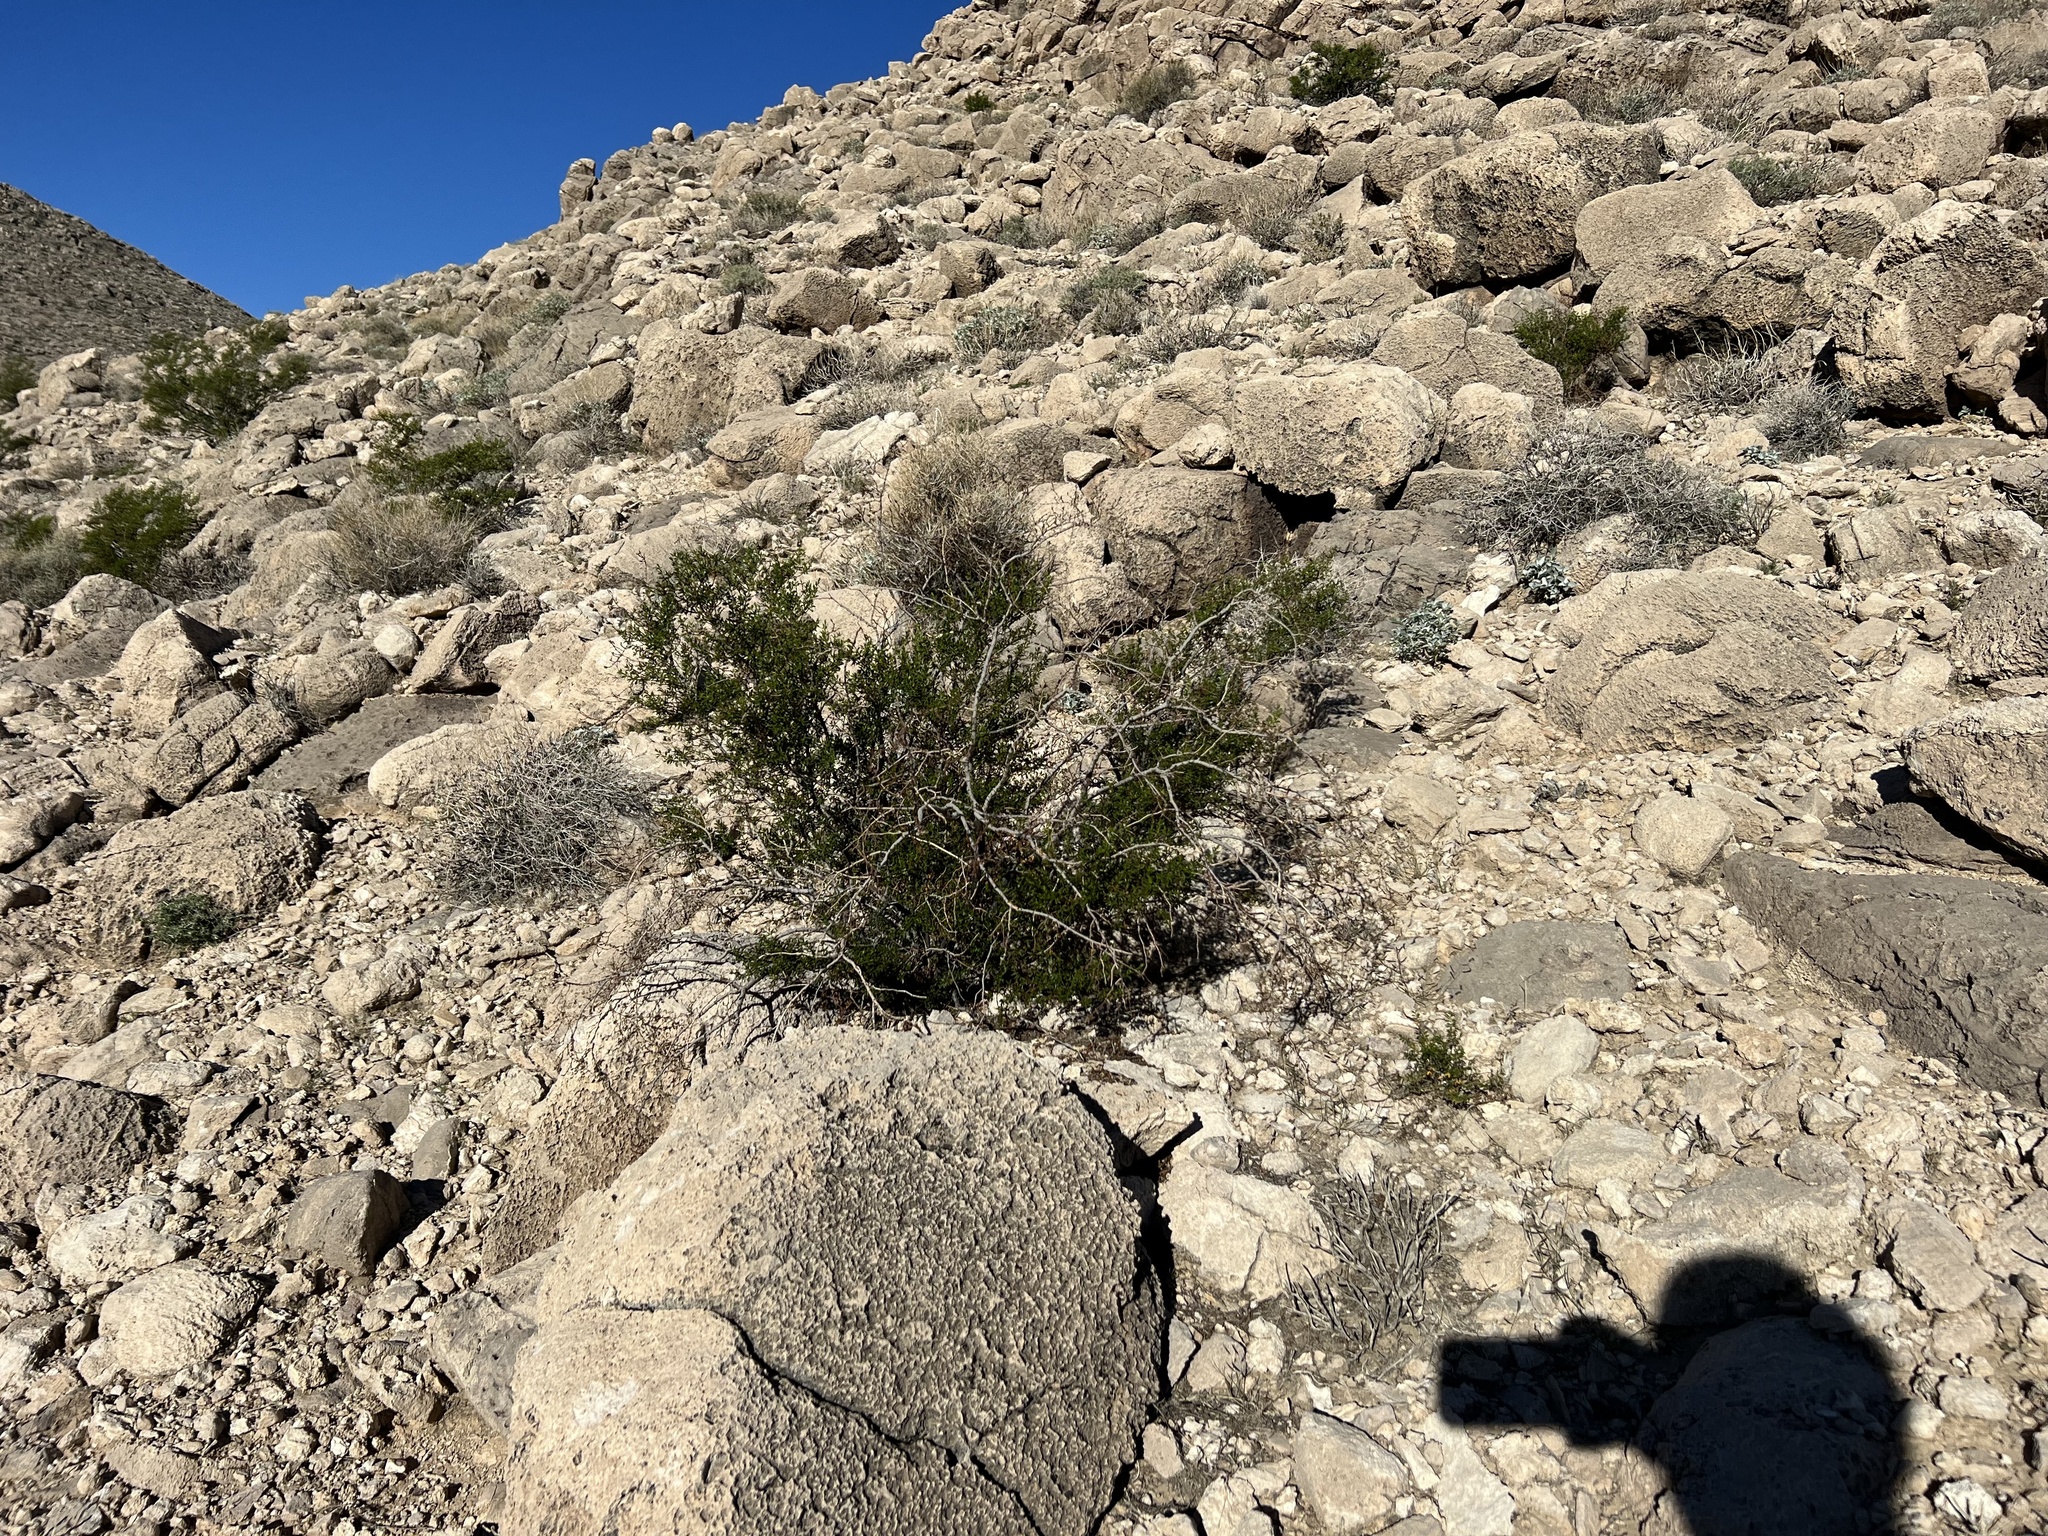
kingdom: Plantae
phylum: Tracheophyta
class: Magnoliopsida
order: Zygophyllales
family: Zygophyllaceae
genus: Larrea
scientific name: Larrea tridentata
